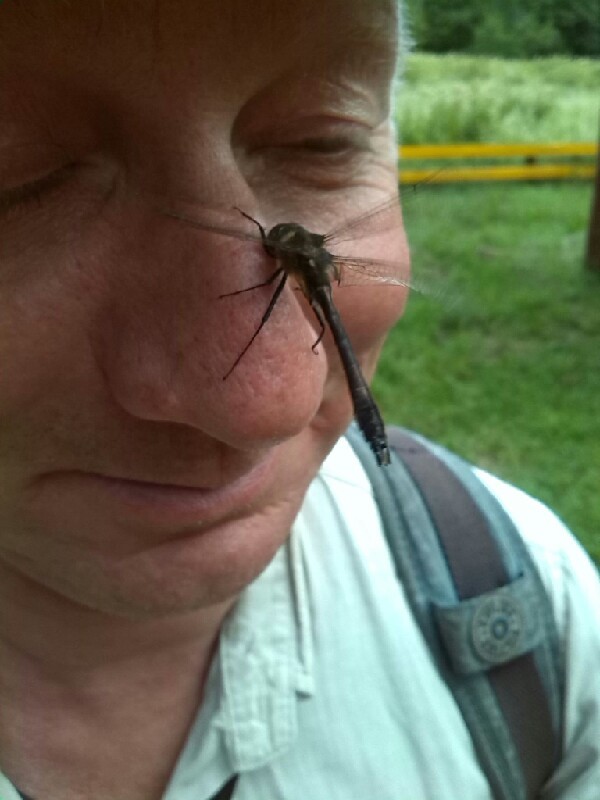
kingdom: Animalia
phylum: Arthropoda
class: Insecta
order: Odonata
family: Corduliidae
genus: Cordulia
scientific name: Cordulia aenea
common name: Downy emerald
